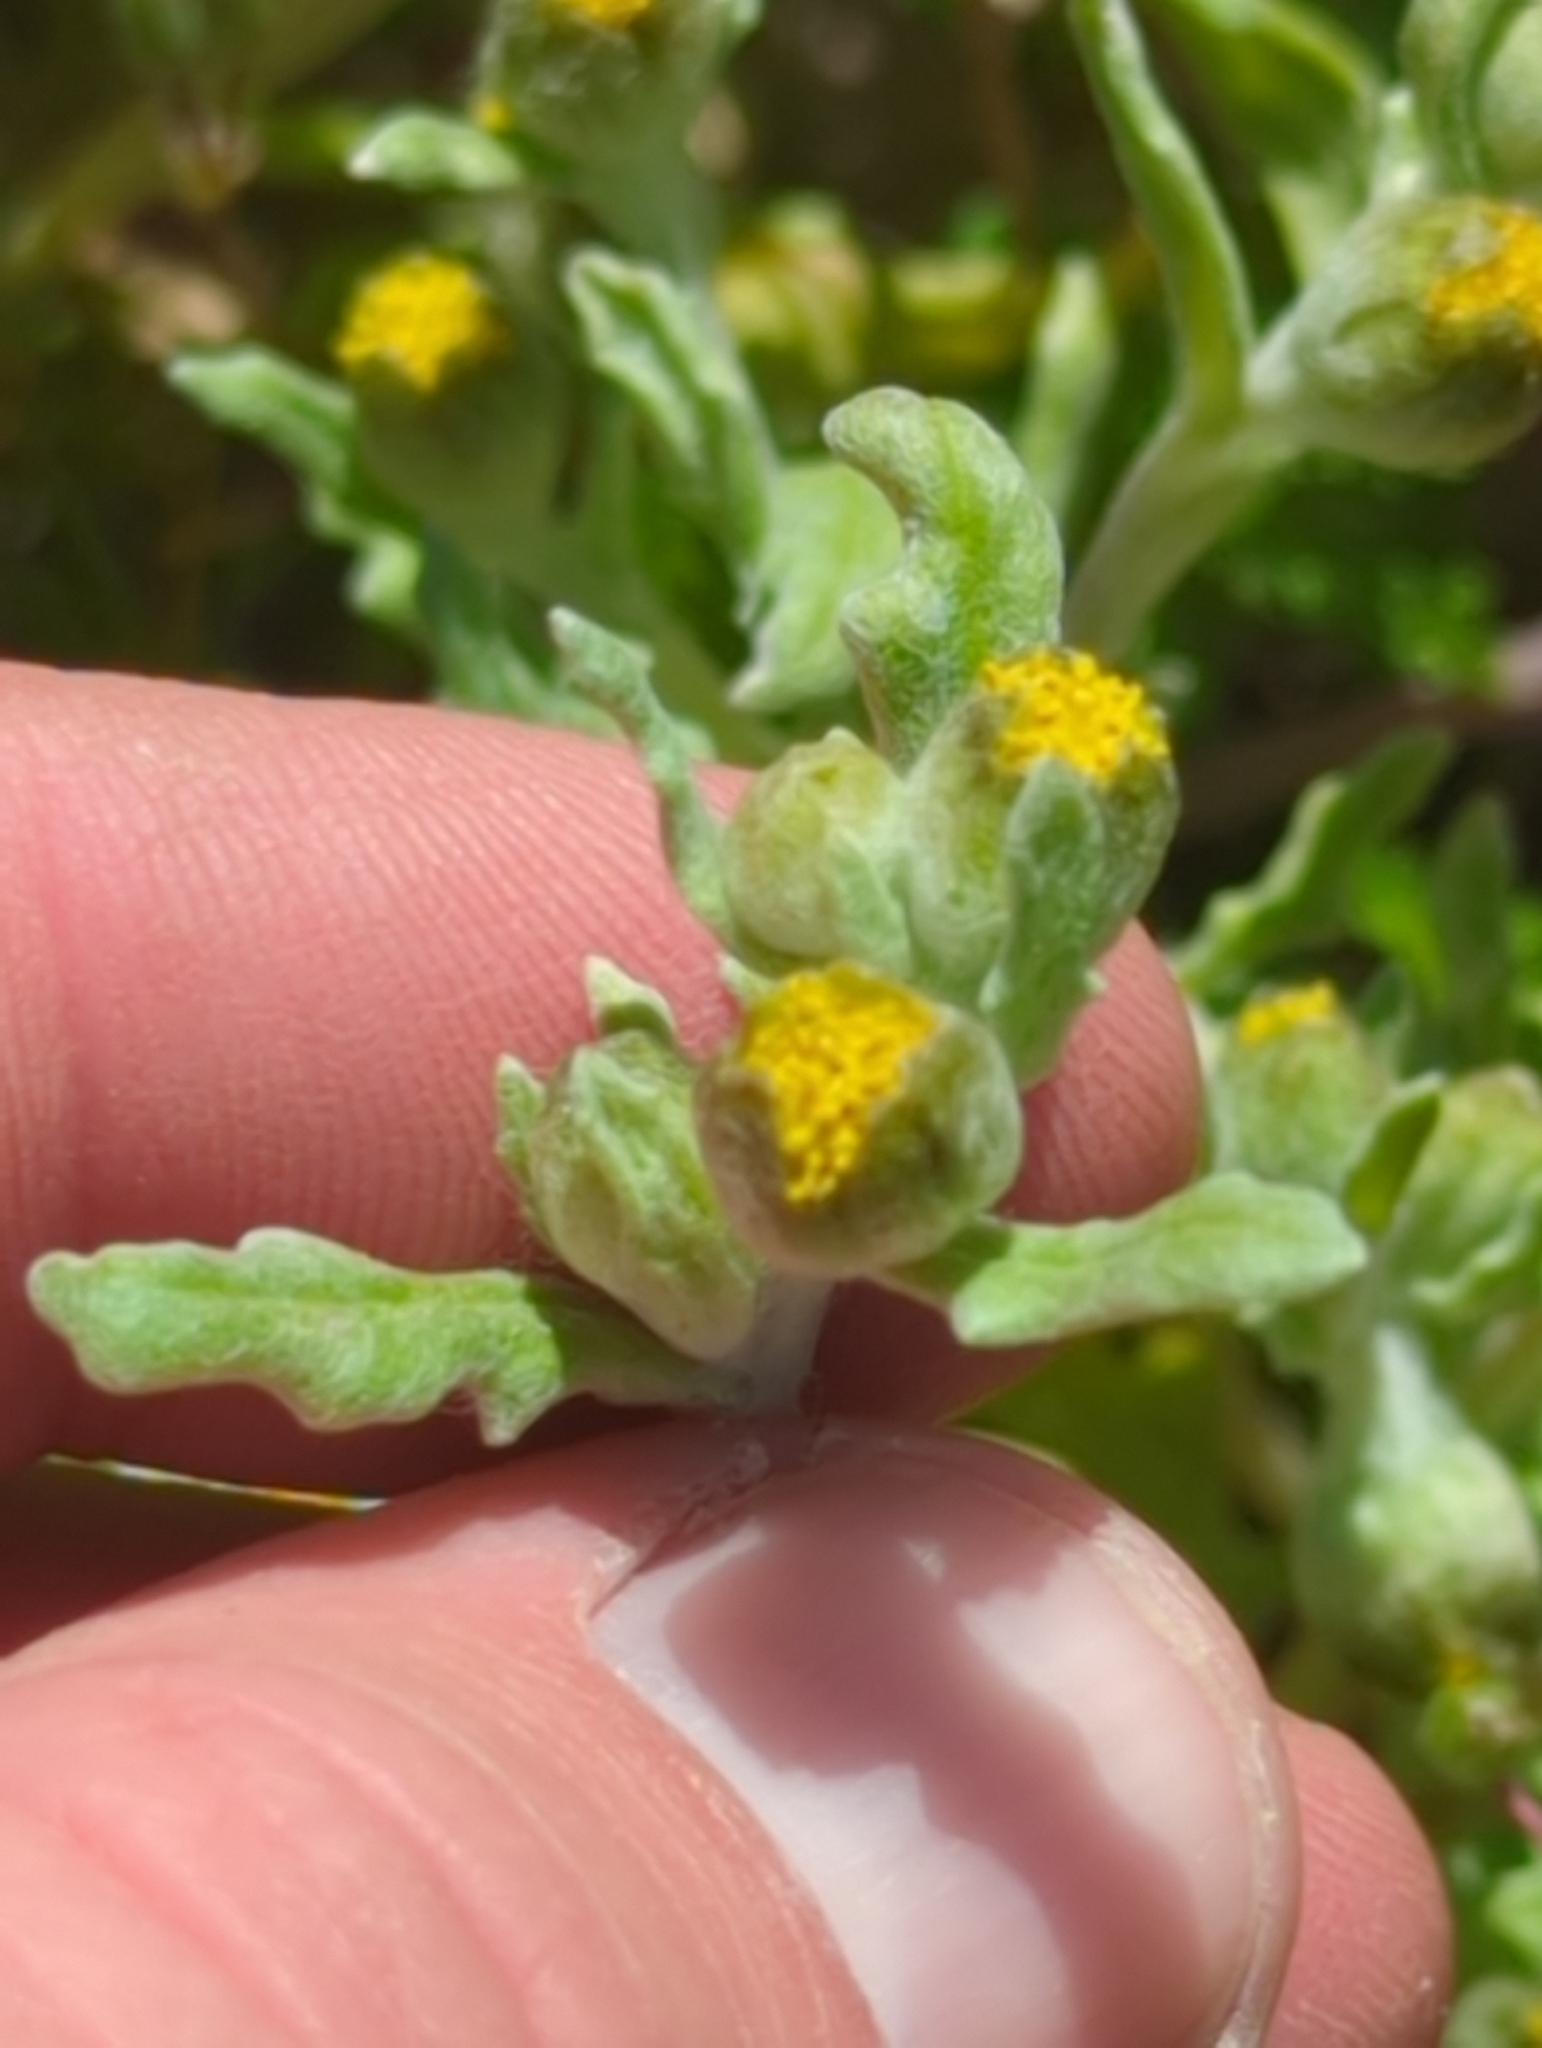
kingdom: Plantae
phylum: Tracheophyta
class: Magnoliopsida
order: Asterales
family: Asteraceae
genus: Monolopia
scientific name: Monolopia congdonii
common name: San joaquin woolly-threads
